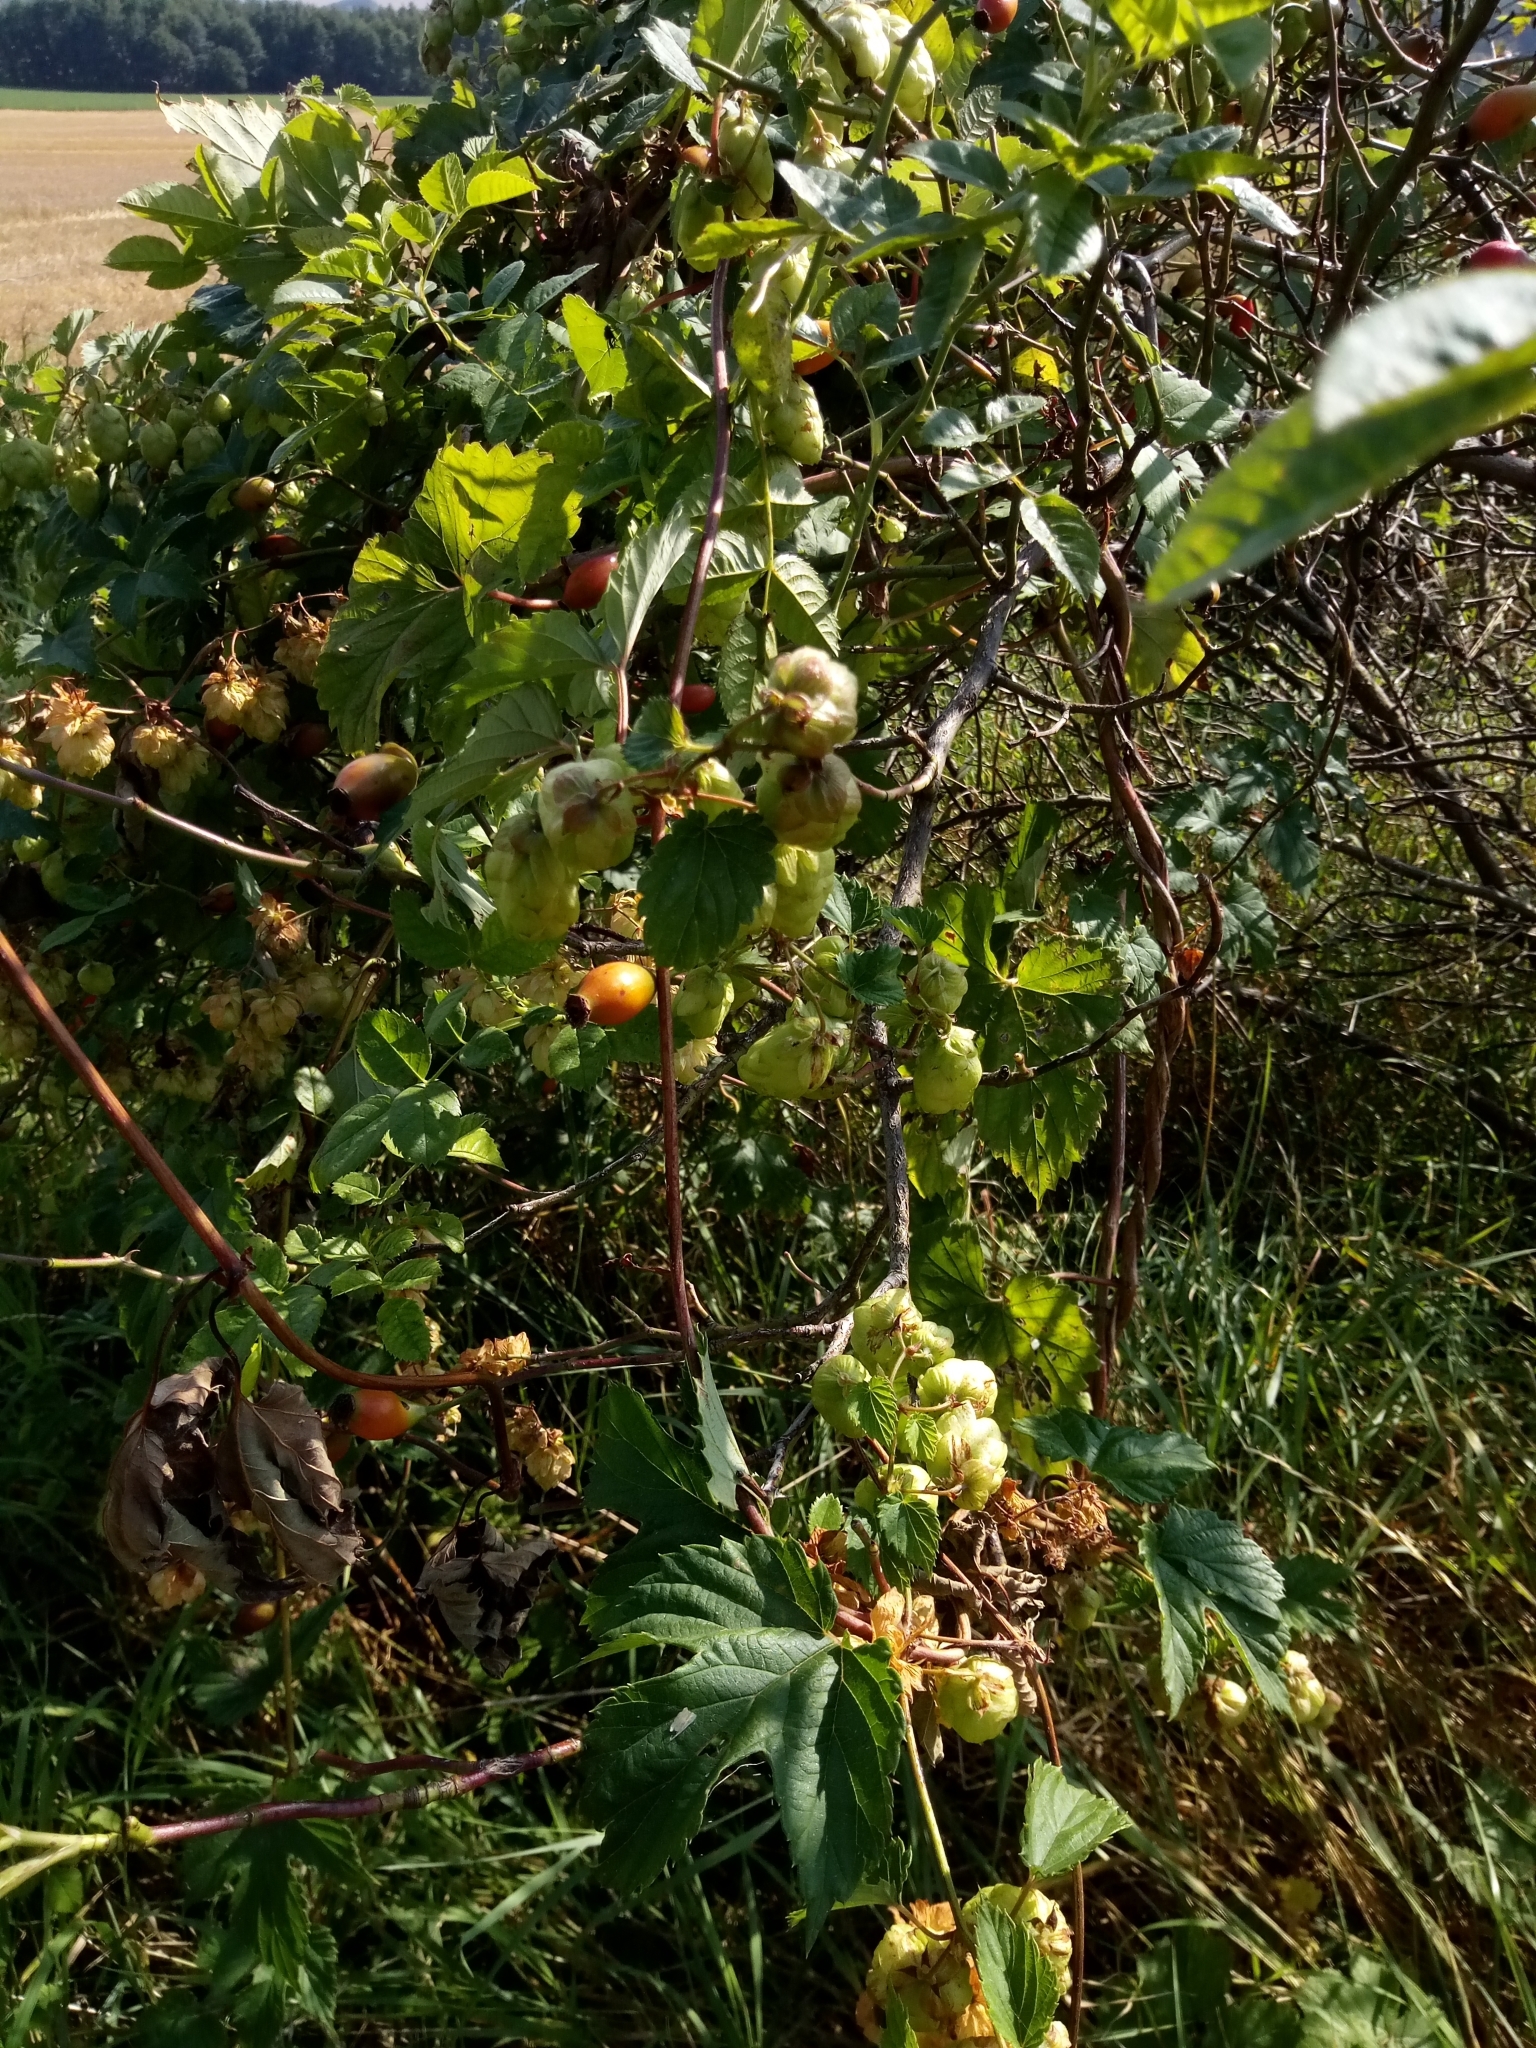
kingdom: Plantae
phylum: Tracheophyta
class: Magnoliopsida
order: Rosales
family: Cannabaceae
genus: Humulus
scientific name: Humulus lupulus
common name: Hop
